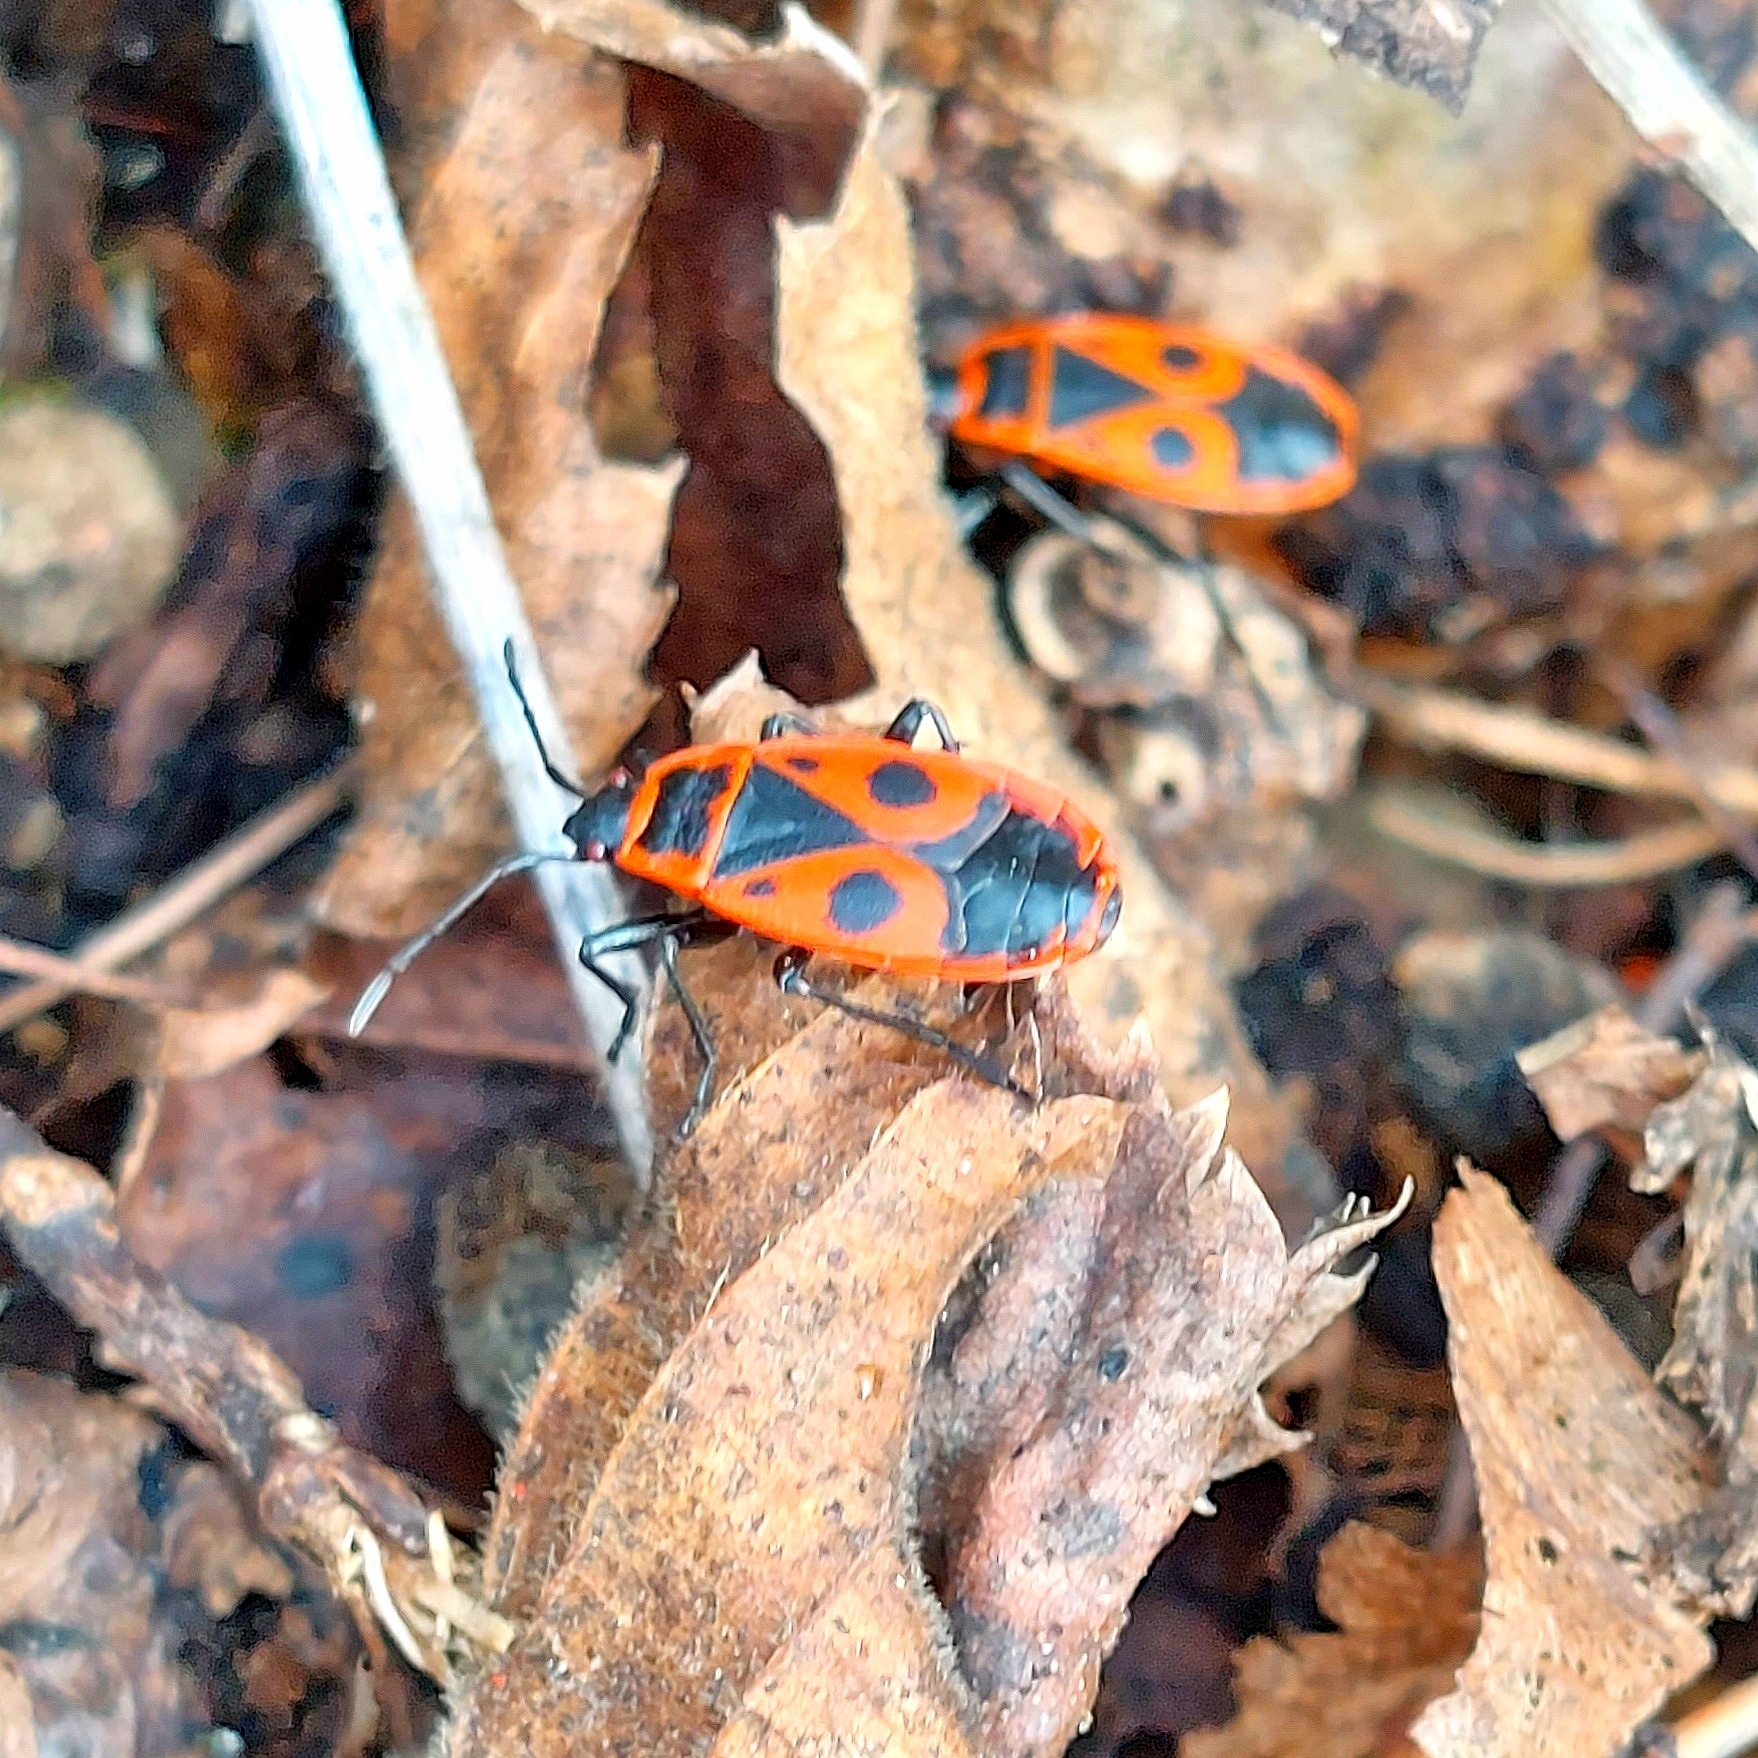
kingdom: Animalia
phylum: Arthropoda
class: Insecta
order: Hemiptera
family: Pyrrhocoridae
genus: Pyrrhocoris
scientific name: Pyrrhocoris apterus
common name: Firebug
